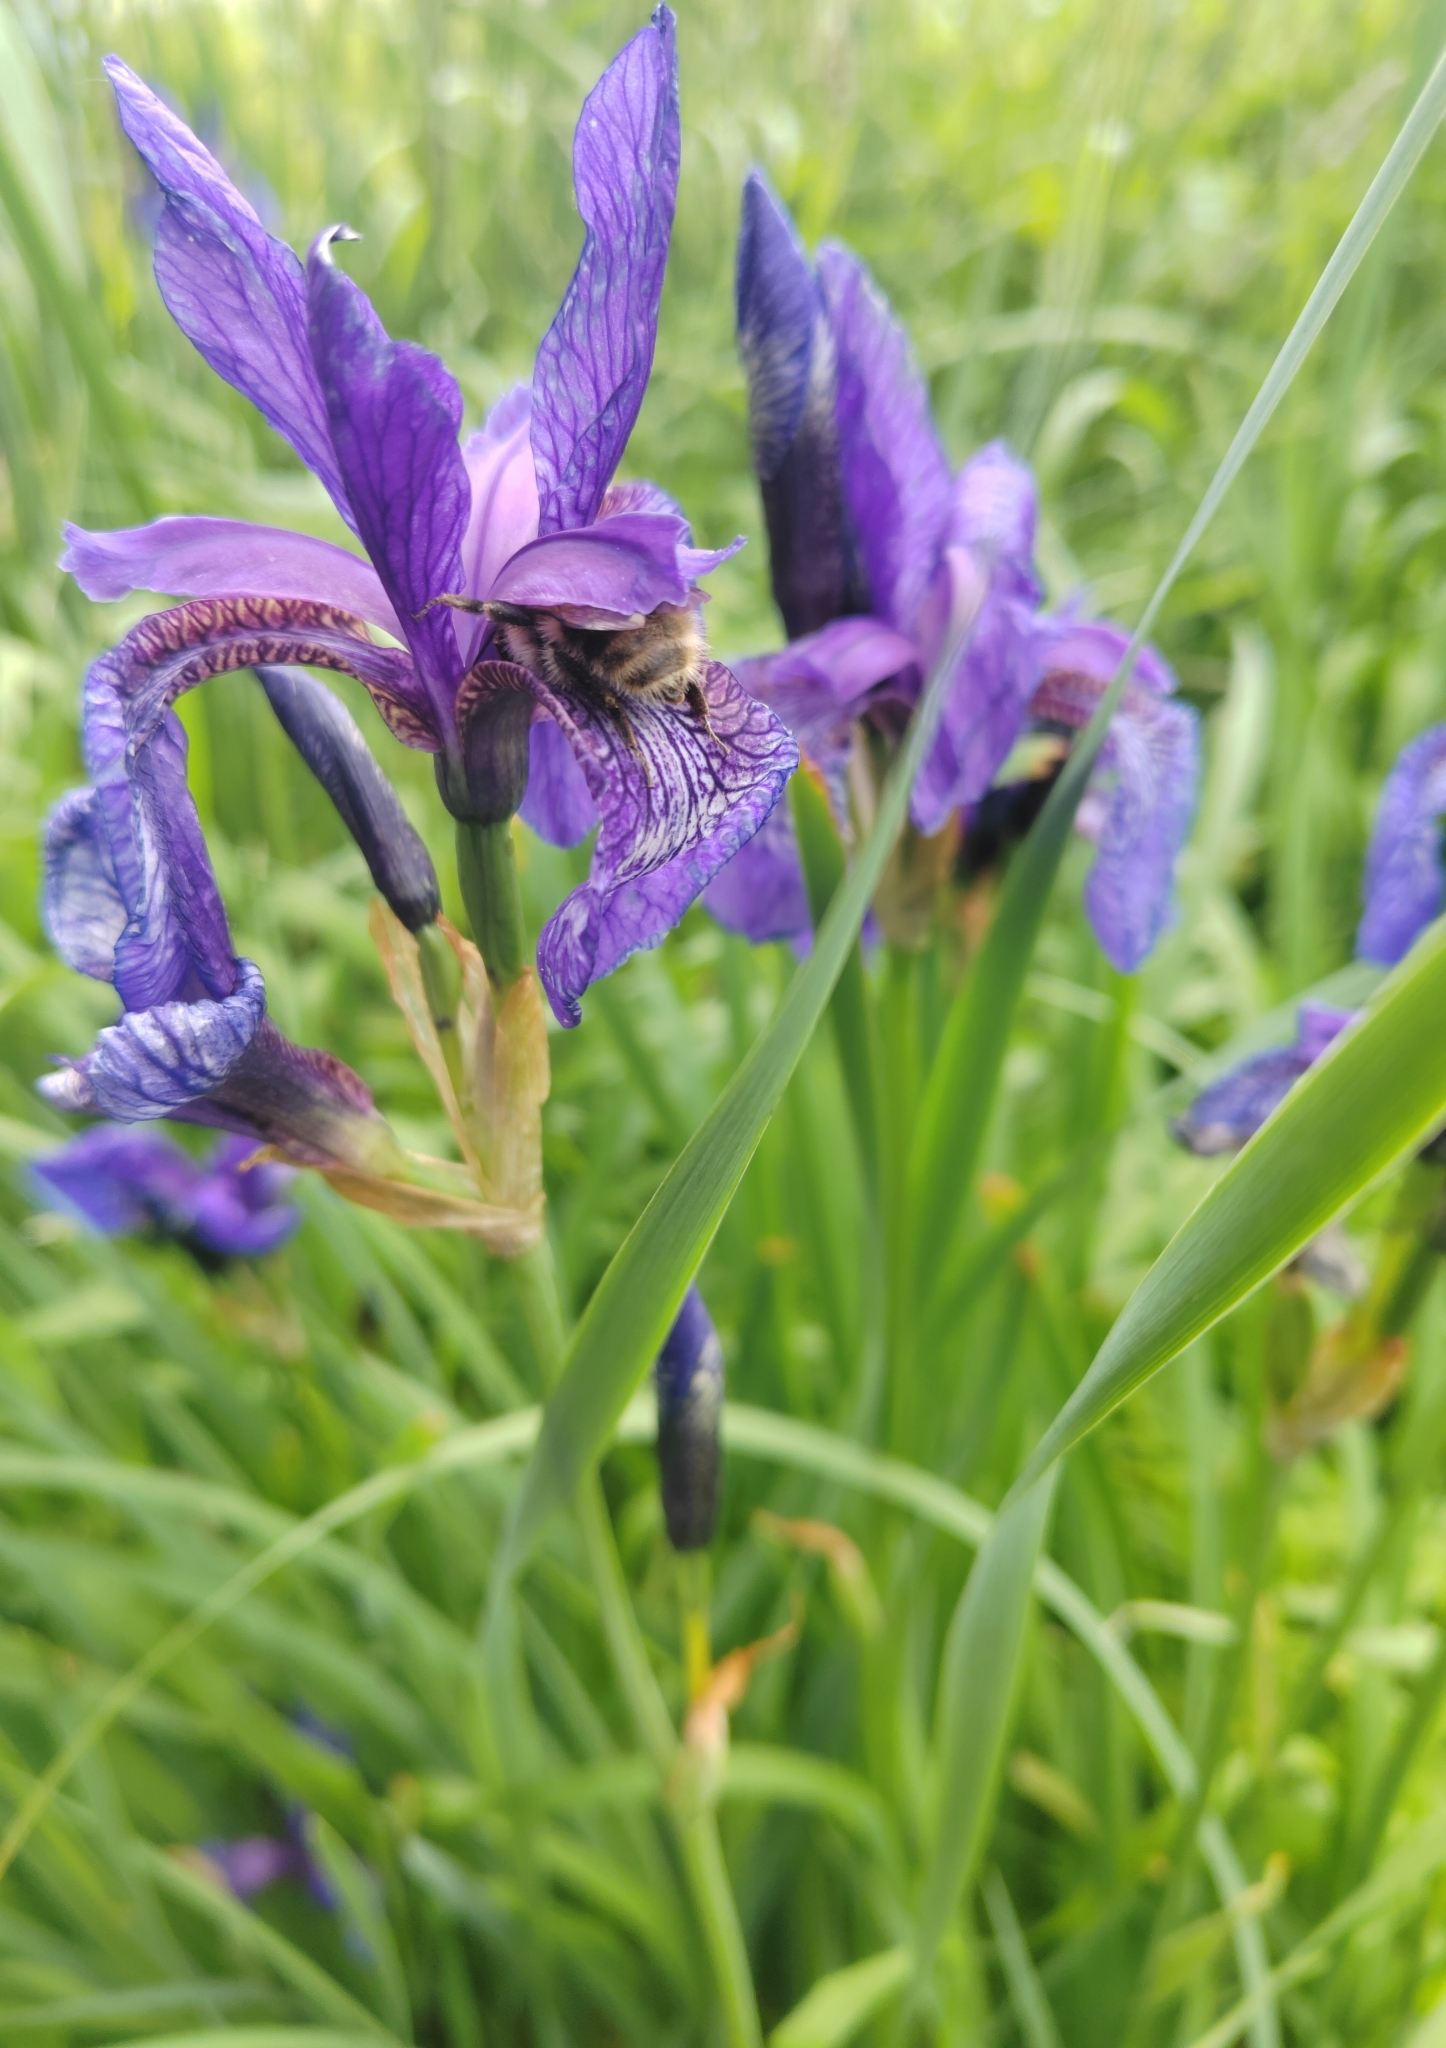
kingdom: Plantae
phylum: Tracheophyta
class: Liliopsida
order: Asparagales
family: Iridaceae
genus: Iris
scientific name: Iris sibirica
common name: Siberian iris
